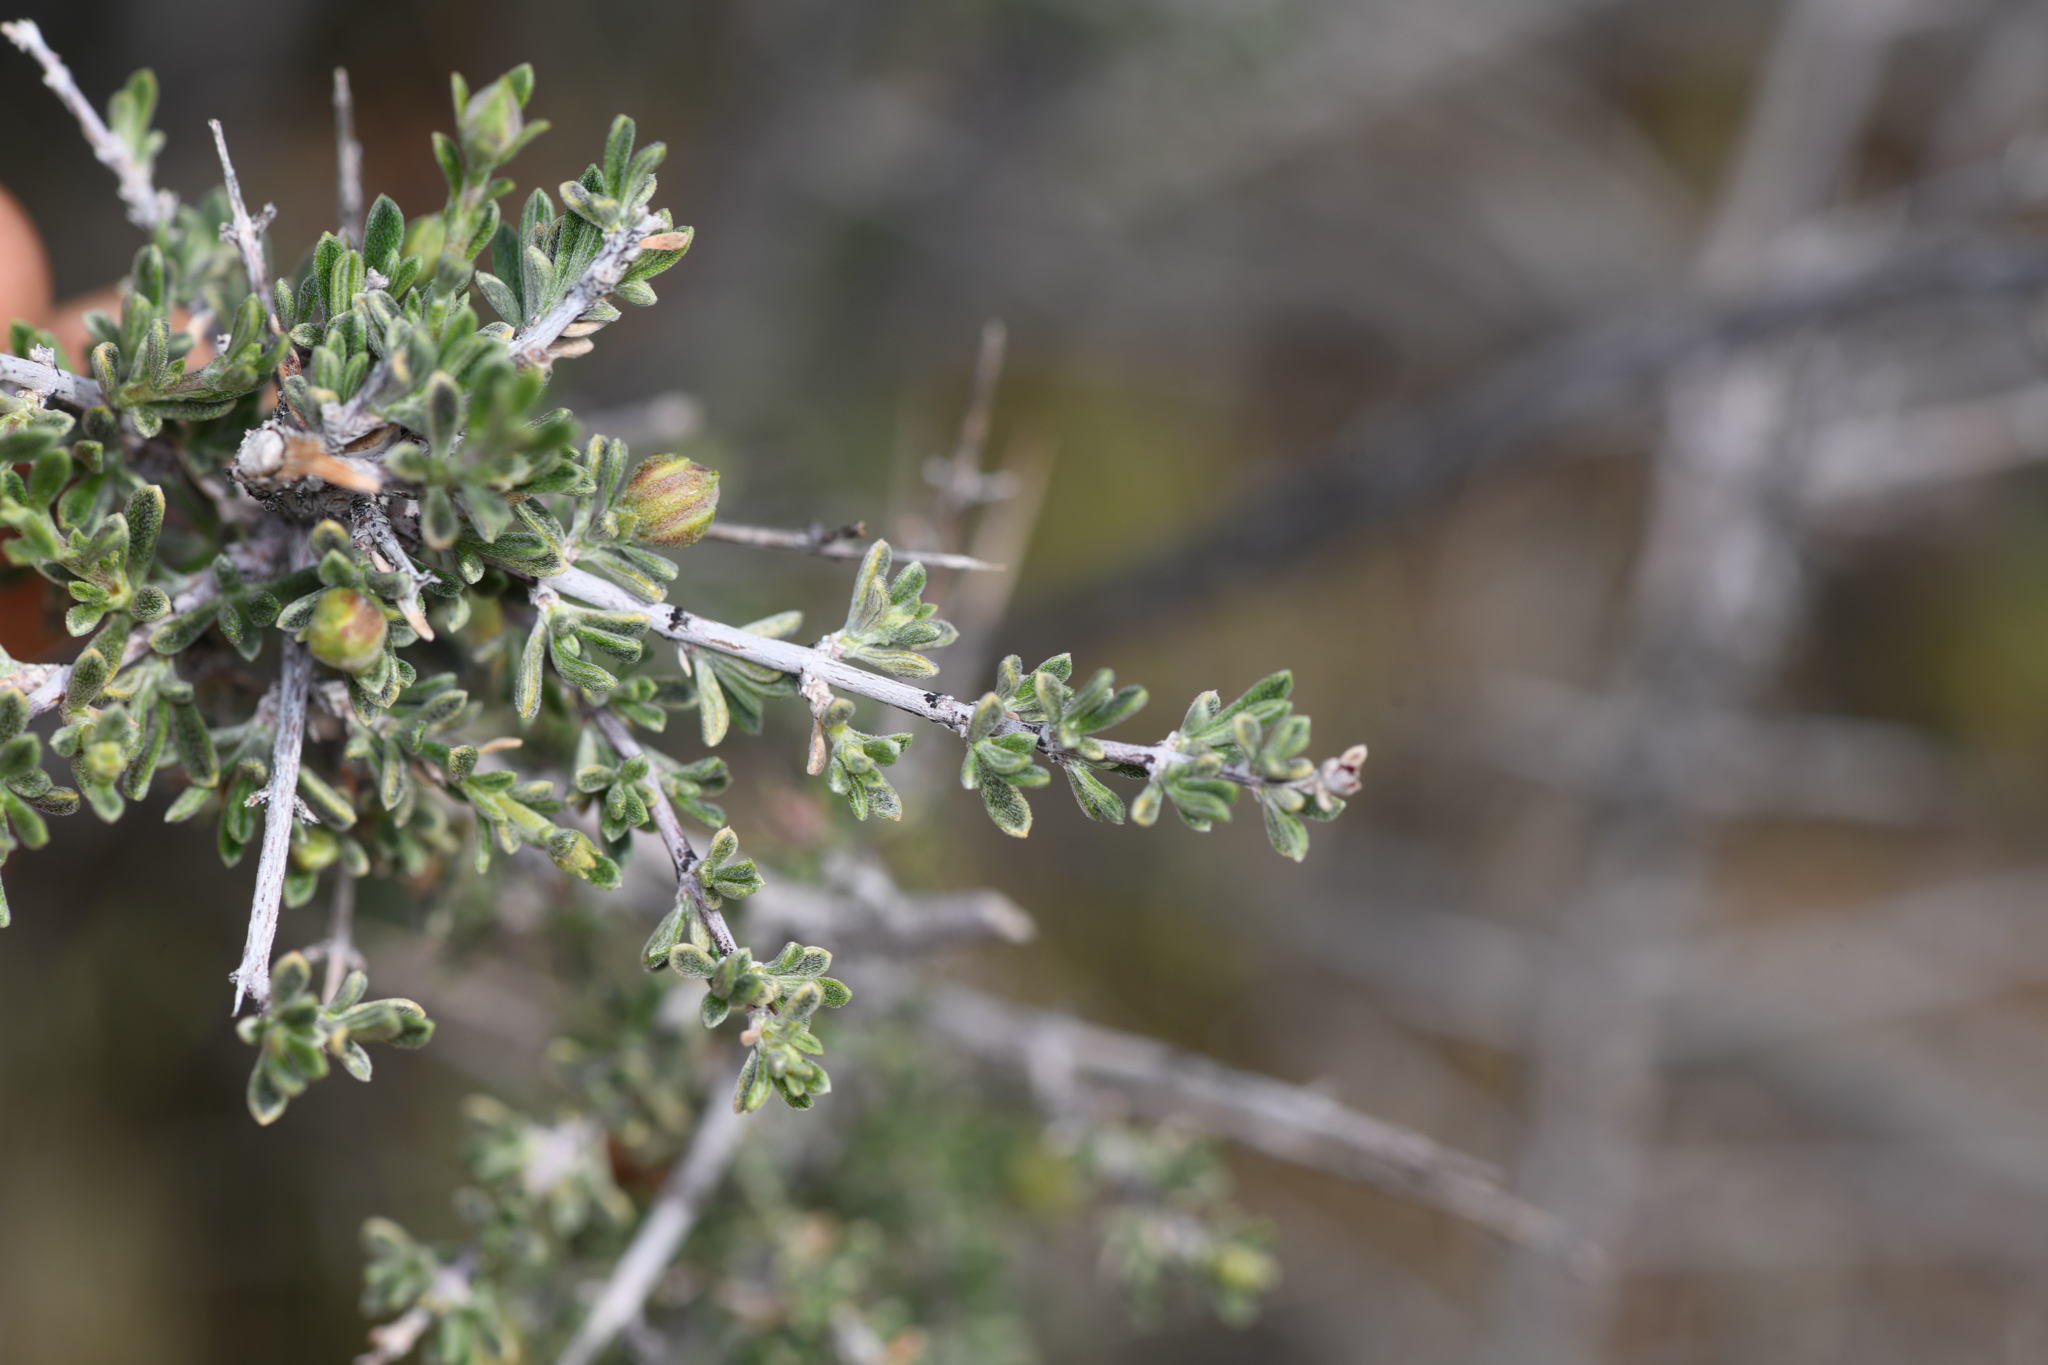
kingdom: Plantae
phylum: Tracheophyta
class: Magnoliopsida
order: Rosales
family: Rosaceae
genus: Coleogyne
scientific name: Coleogyne ramosissima
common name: Blackbrush
